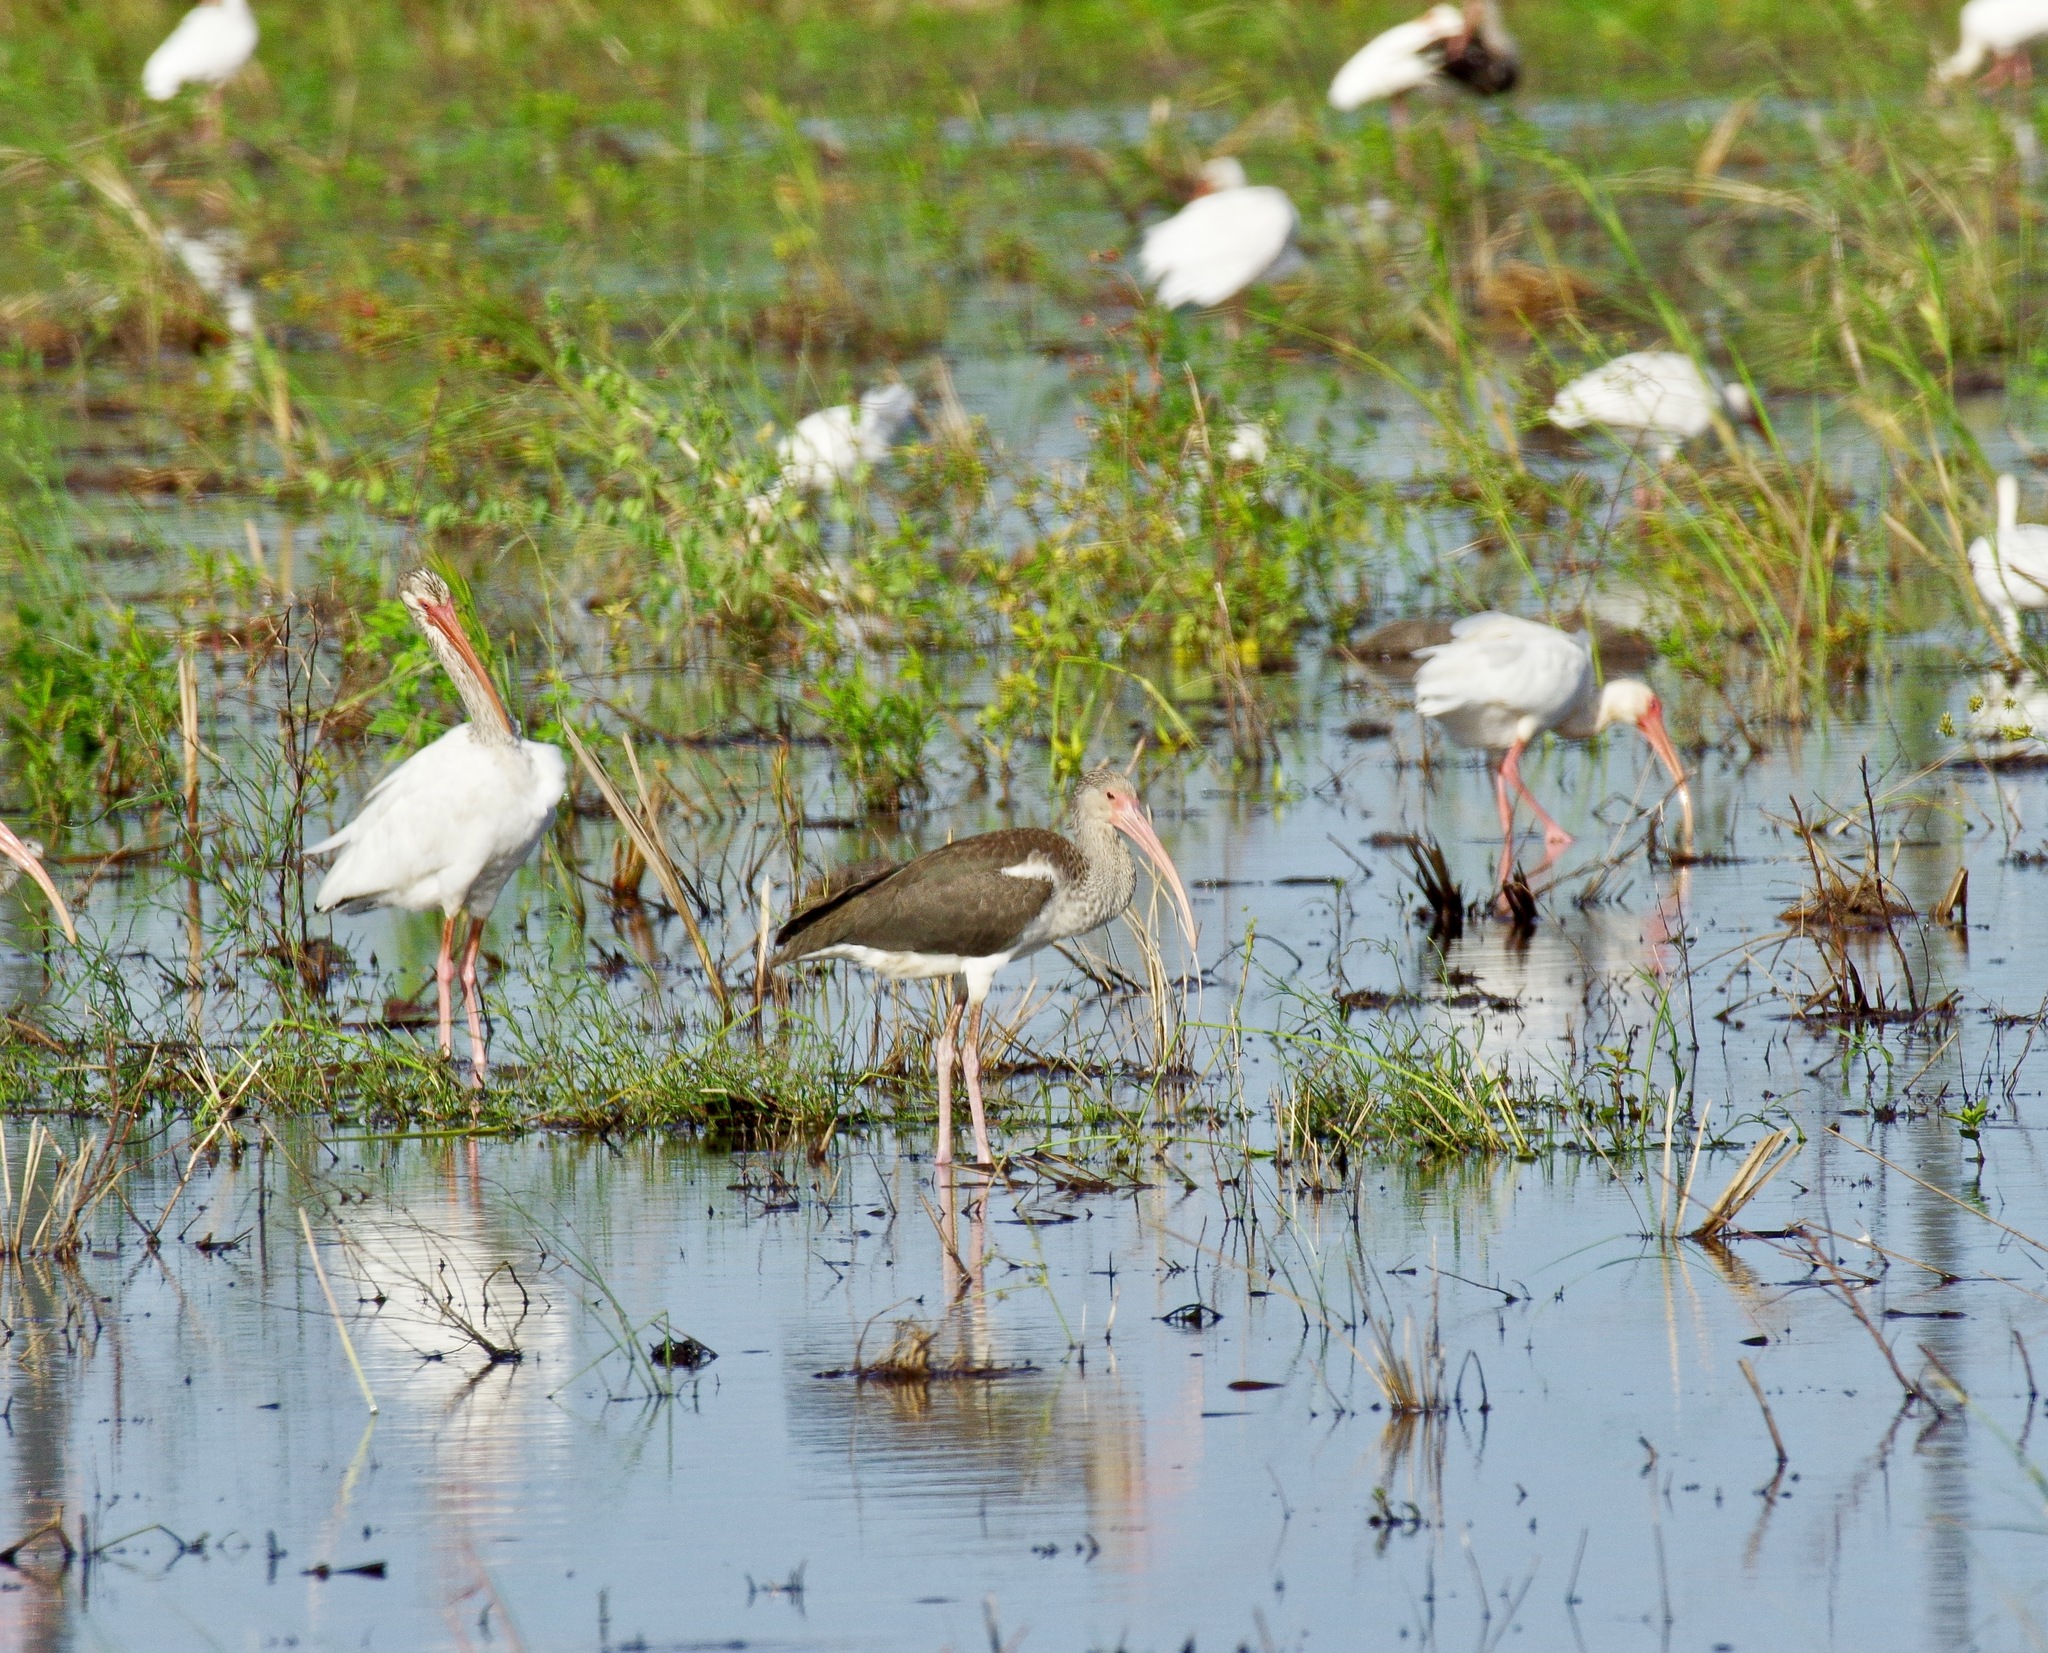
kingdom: Animalia
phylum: Chordata
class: Aves
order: Pelecaniformes
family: Threskiornithidae
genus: Eudocimus
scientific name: Eudocimus albus
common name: White ibis
